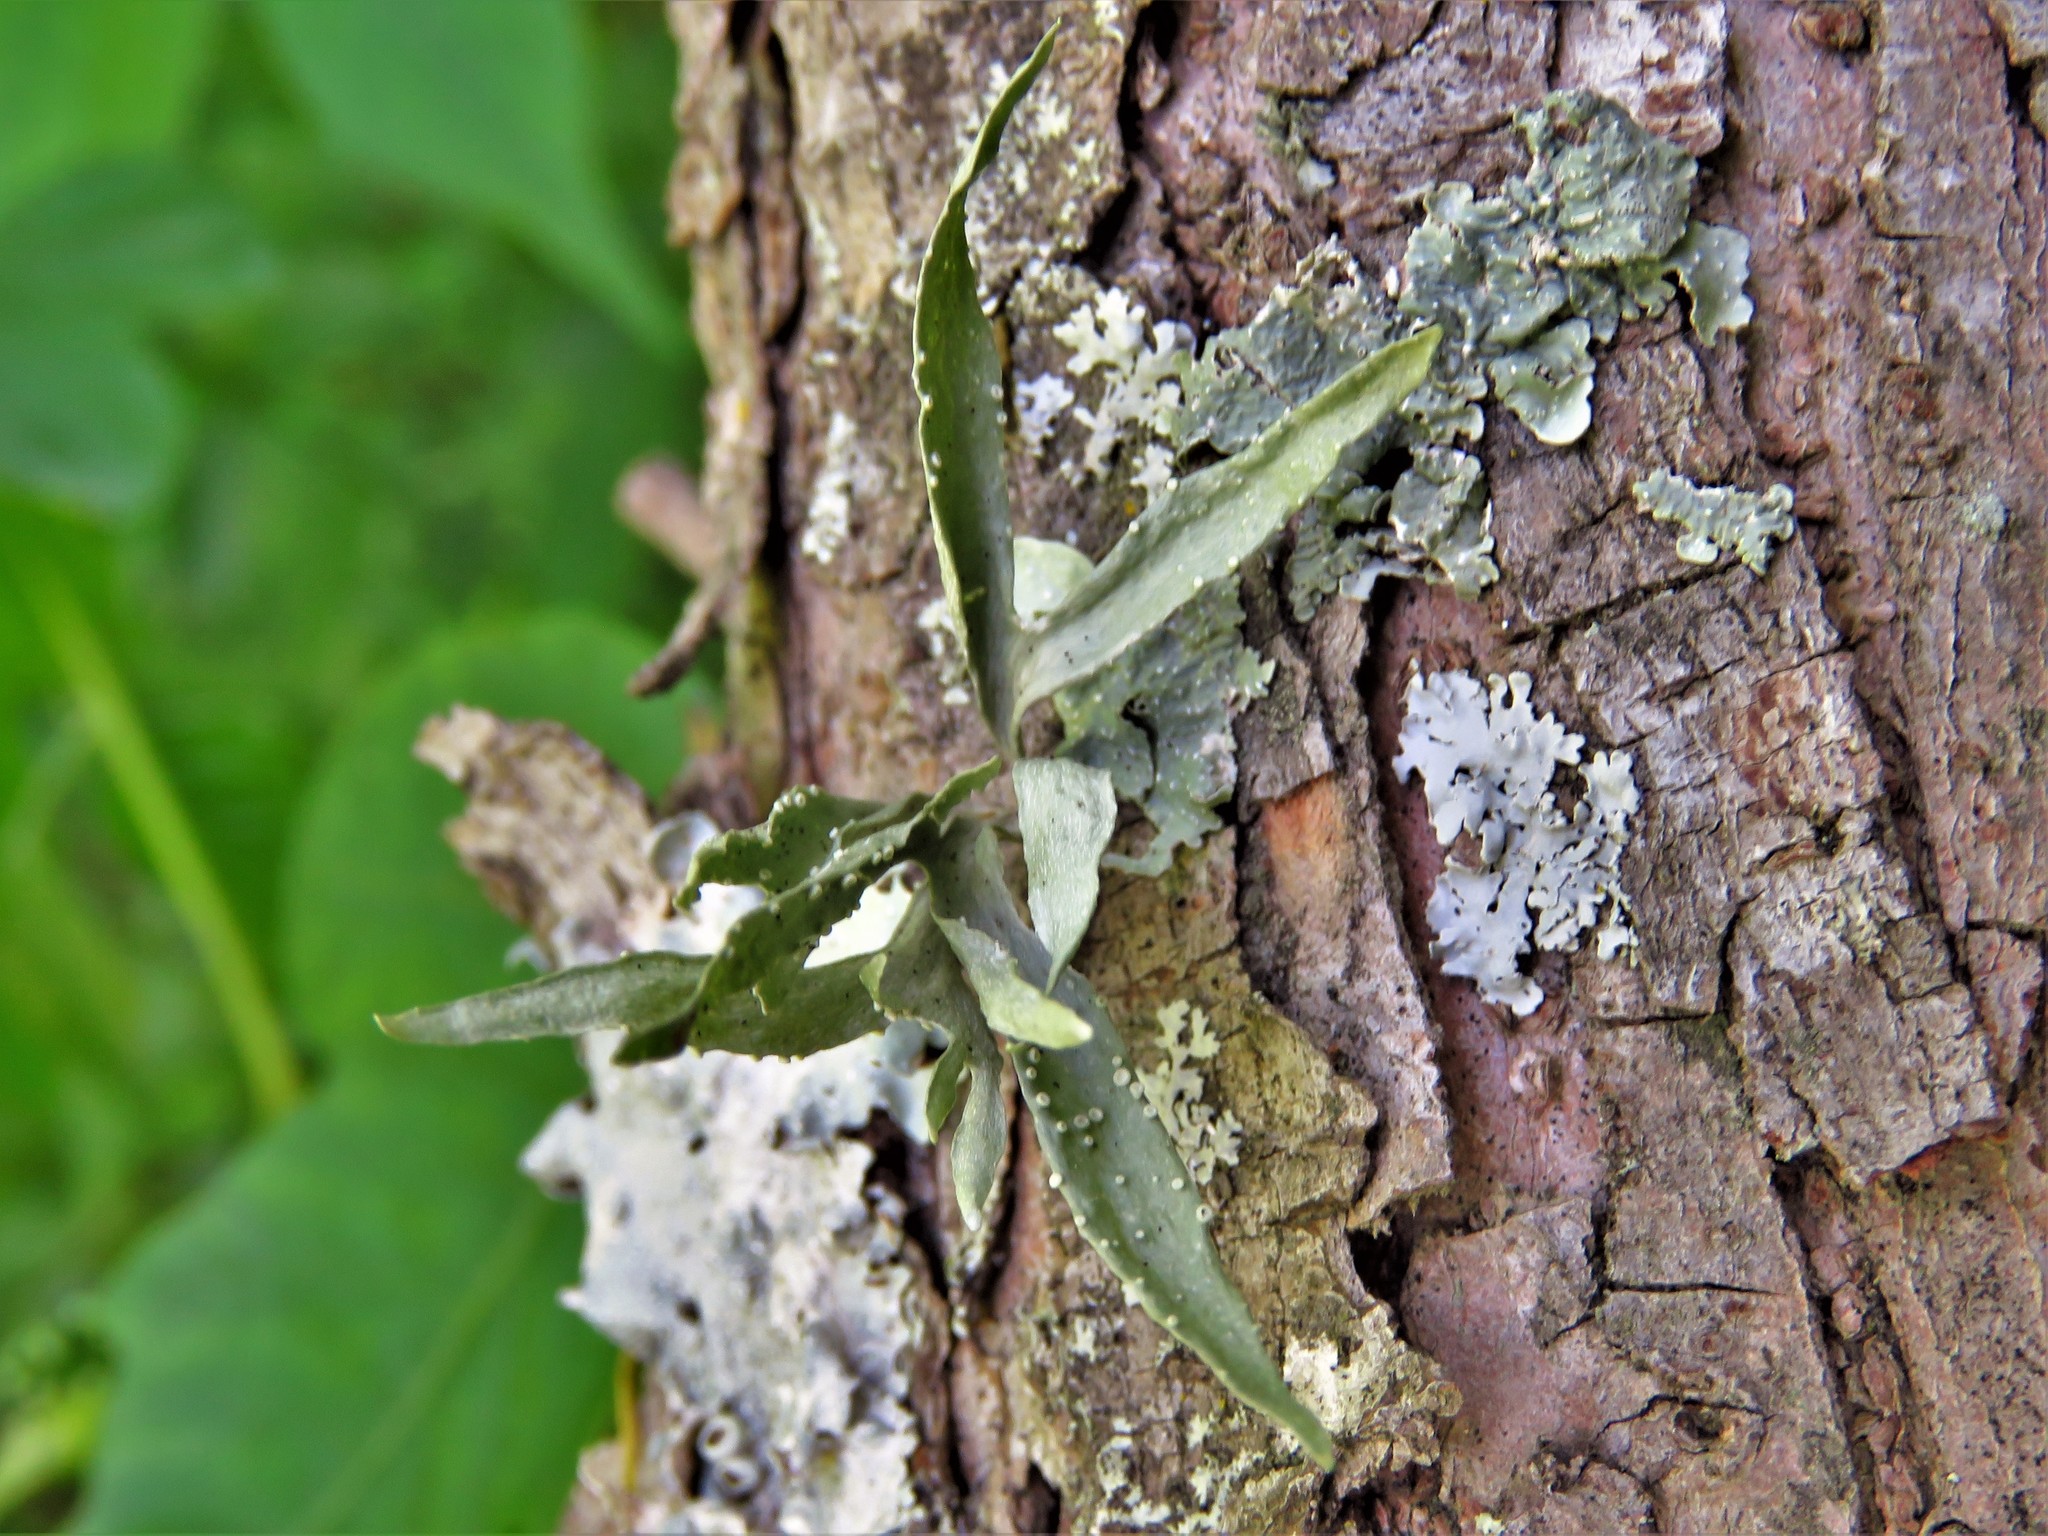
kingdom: Fungi
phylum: Ascomycota
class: Lecanoromycetes
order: Lecanorales
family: Ramalinaceae
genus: Ramalina
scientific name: Ramalina celastri
